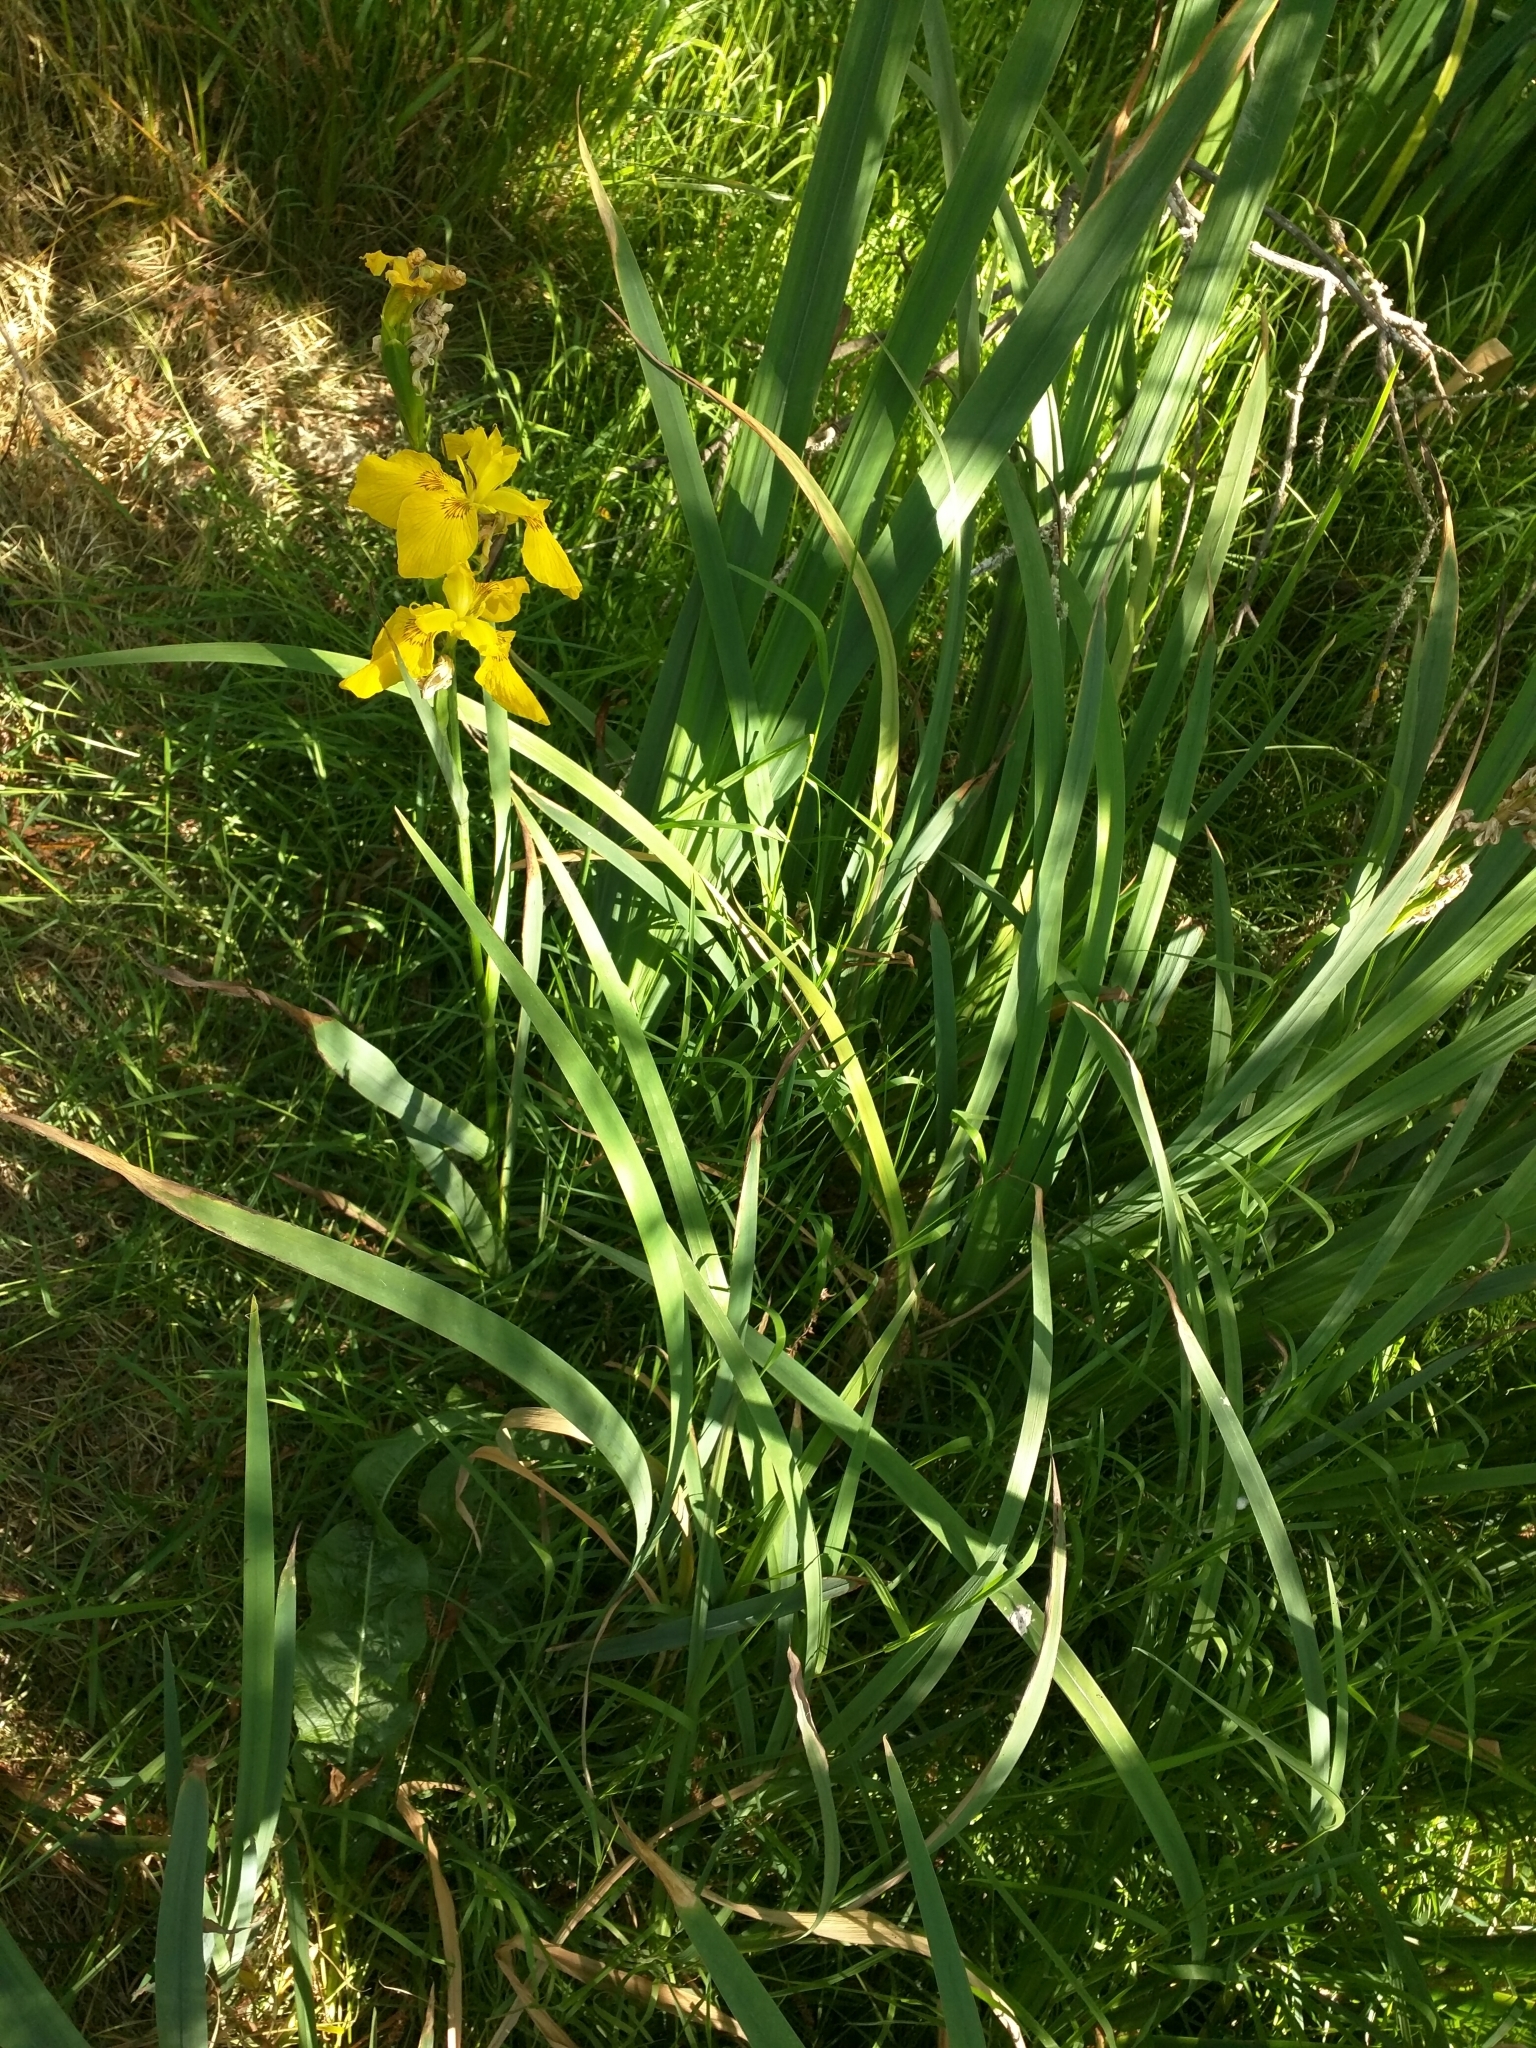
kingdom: Plantae
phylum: Tracheophyta
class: Liliopsida
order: Asparagales
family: Iridaceae
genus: Iris
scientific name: Iris pseudacorus
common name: Yellow flag
